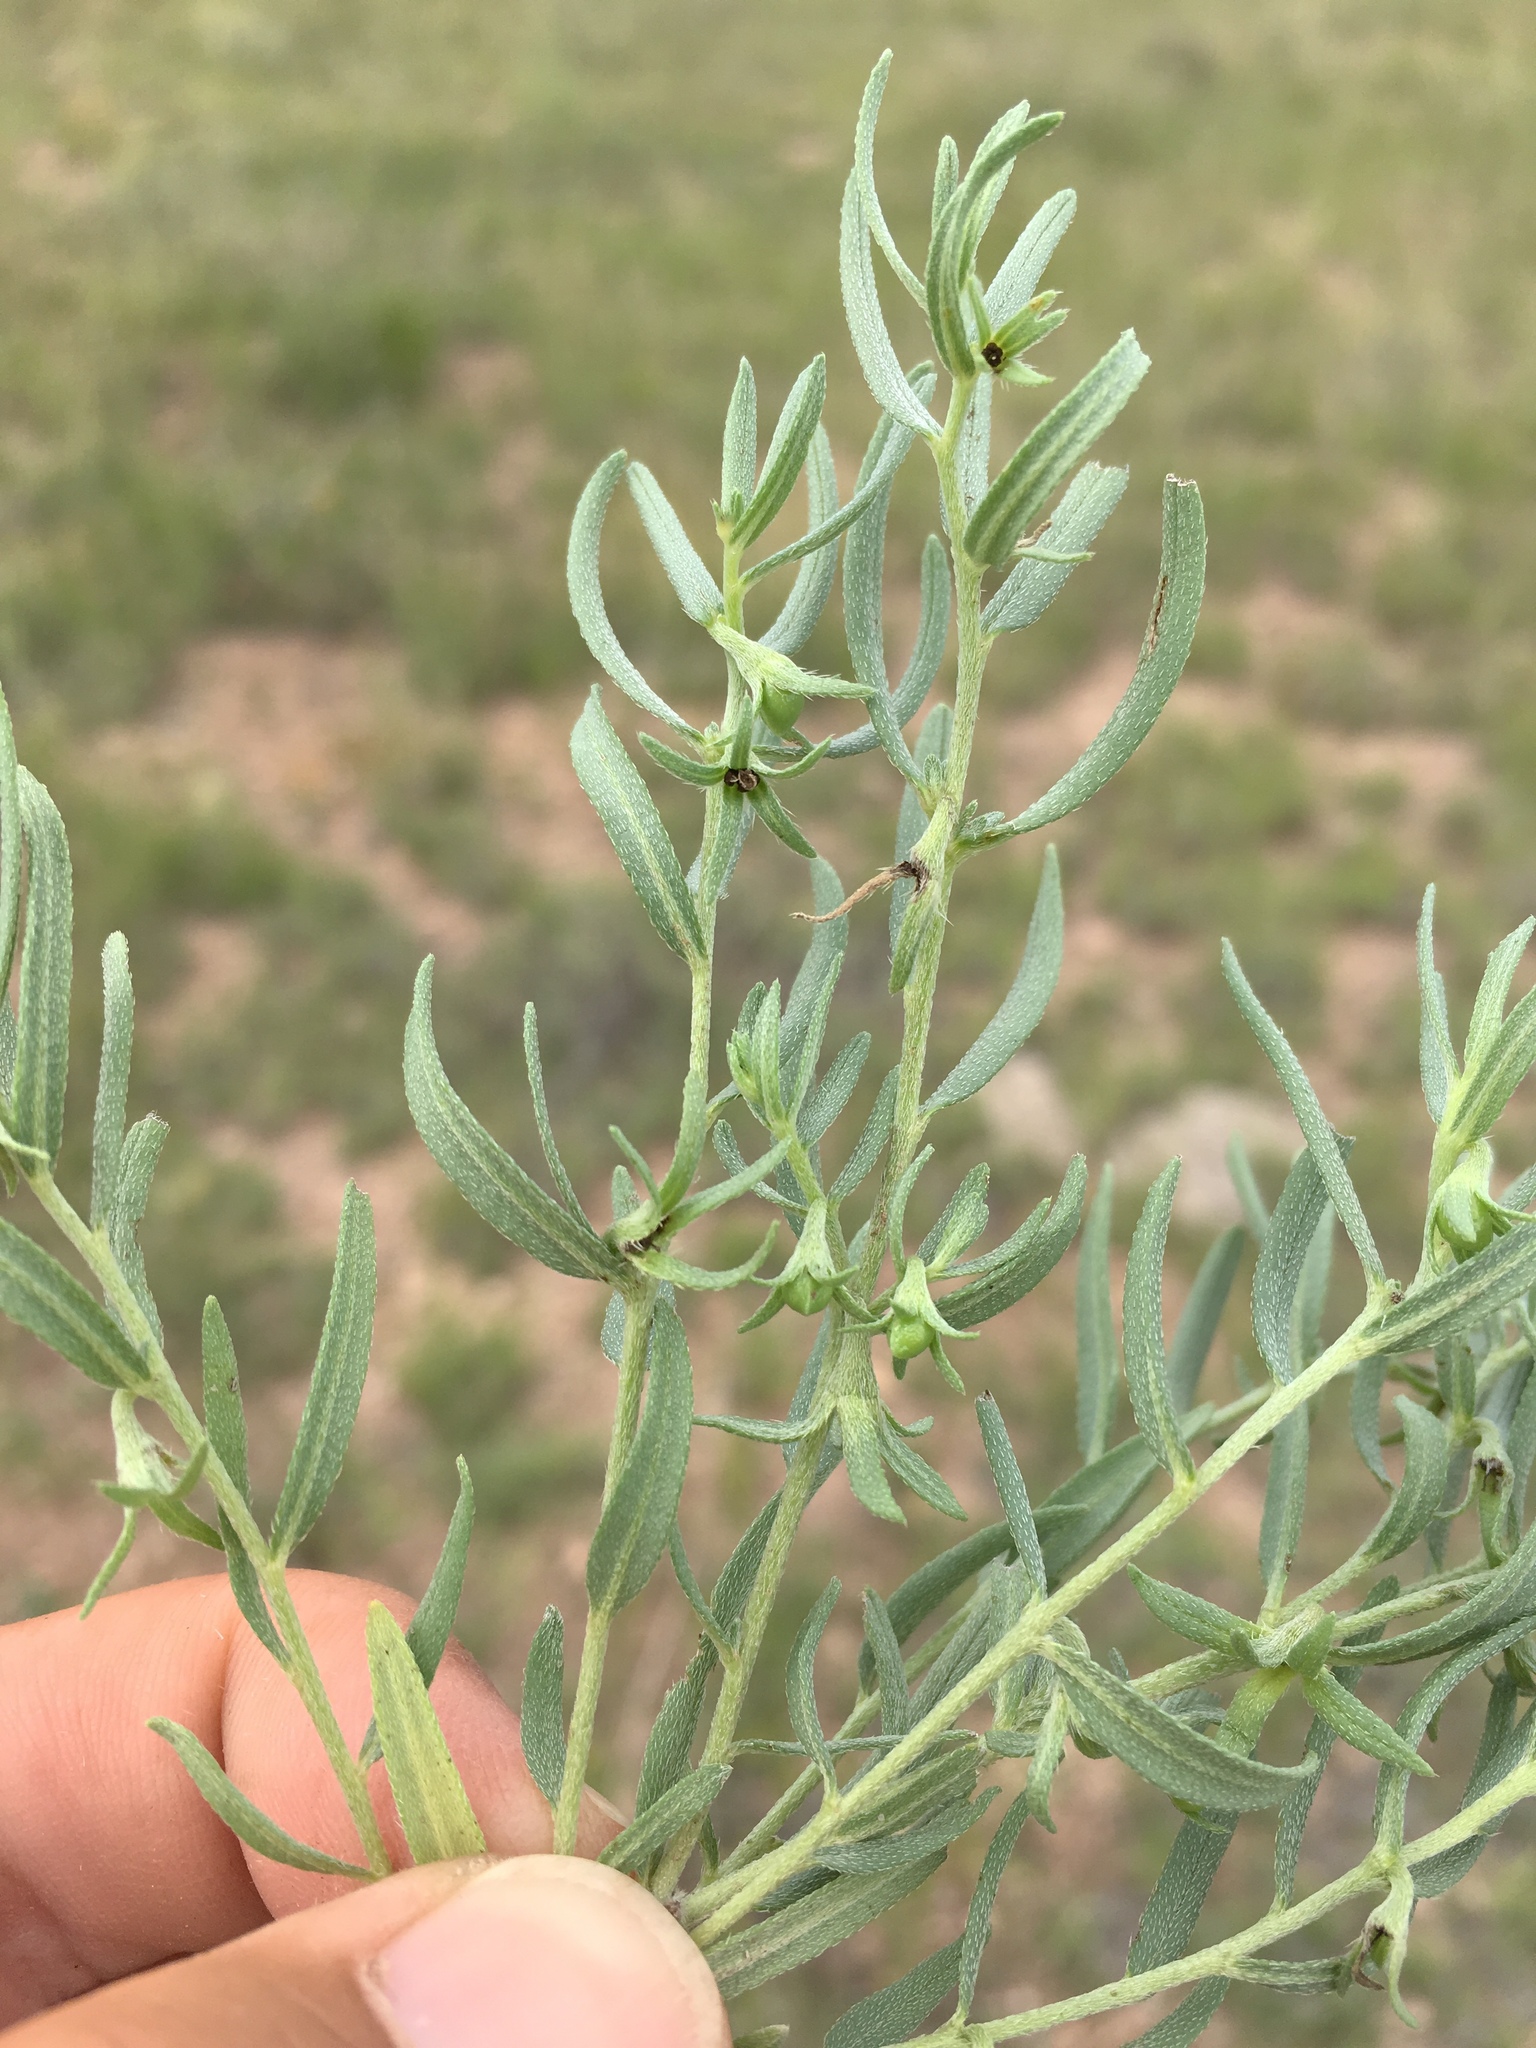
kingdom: Plantae
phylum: Tracheophyta
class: Magnoliopsida
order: Boraginales
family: Boraginaceae
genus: Lithospermum
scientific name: Lithospermum incisum
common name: Fringed gromwell
